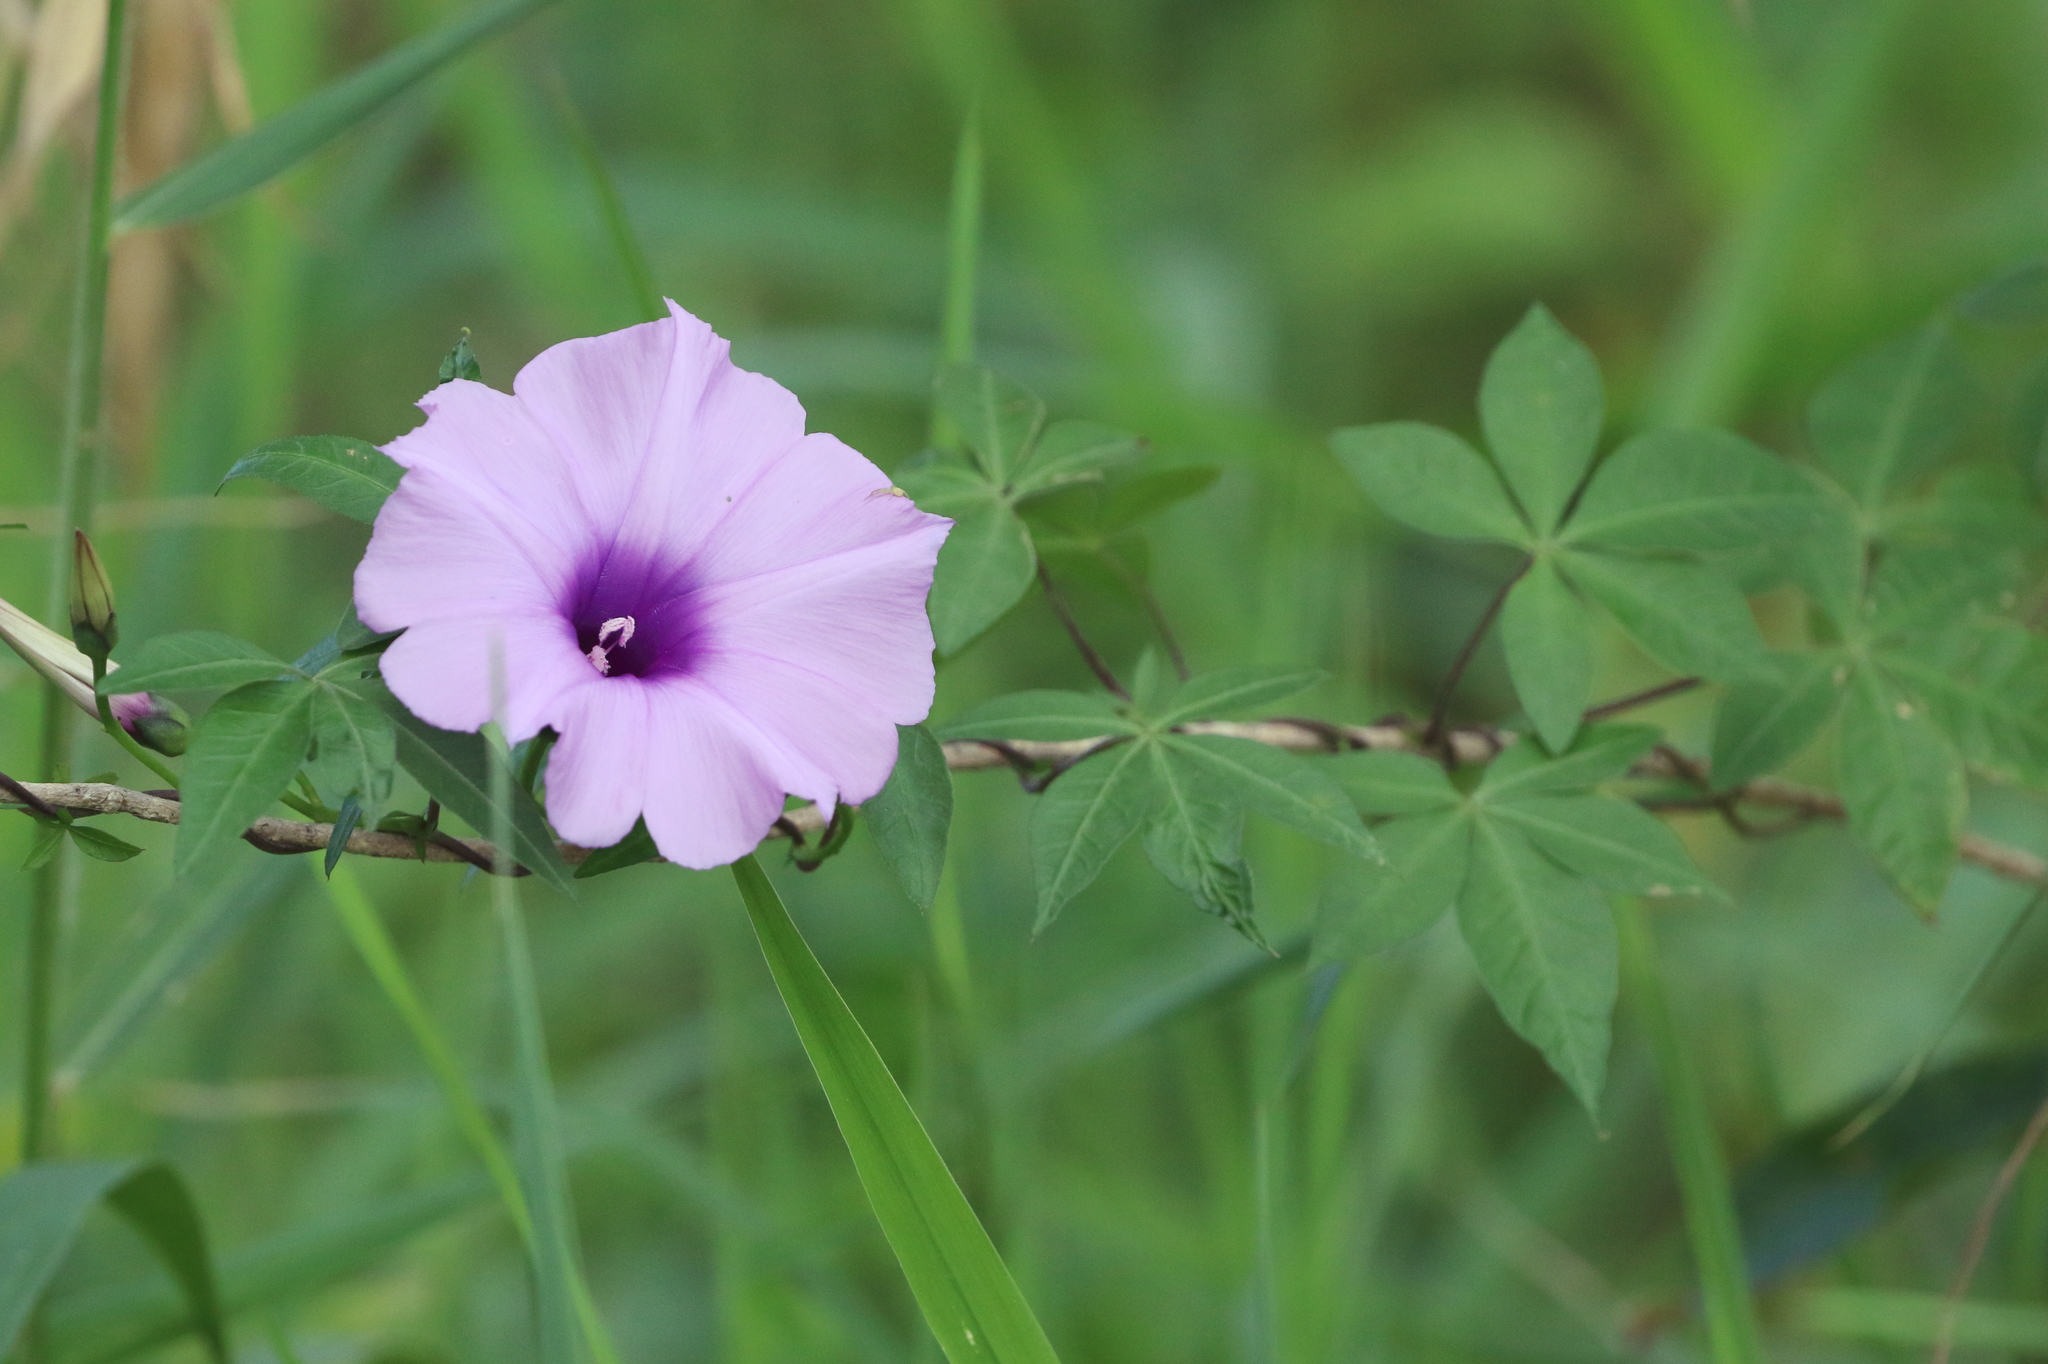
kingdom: Plantae
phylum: Tracheophyta
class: Magnoliopsida
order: Solanales
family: Convolvulaceae
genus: Ipomoea
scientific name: Ipomoea cairica
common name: Mile a minute vine
